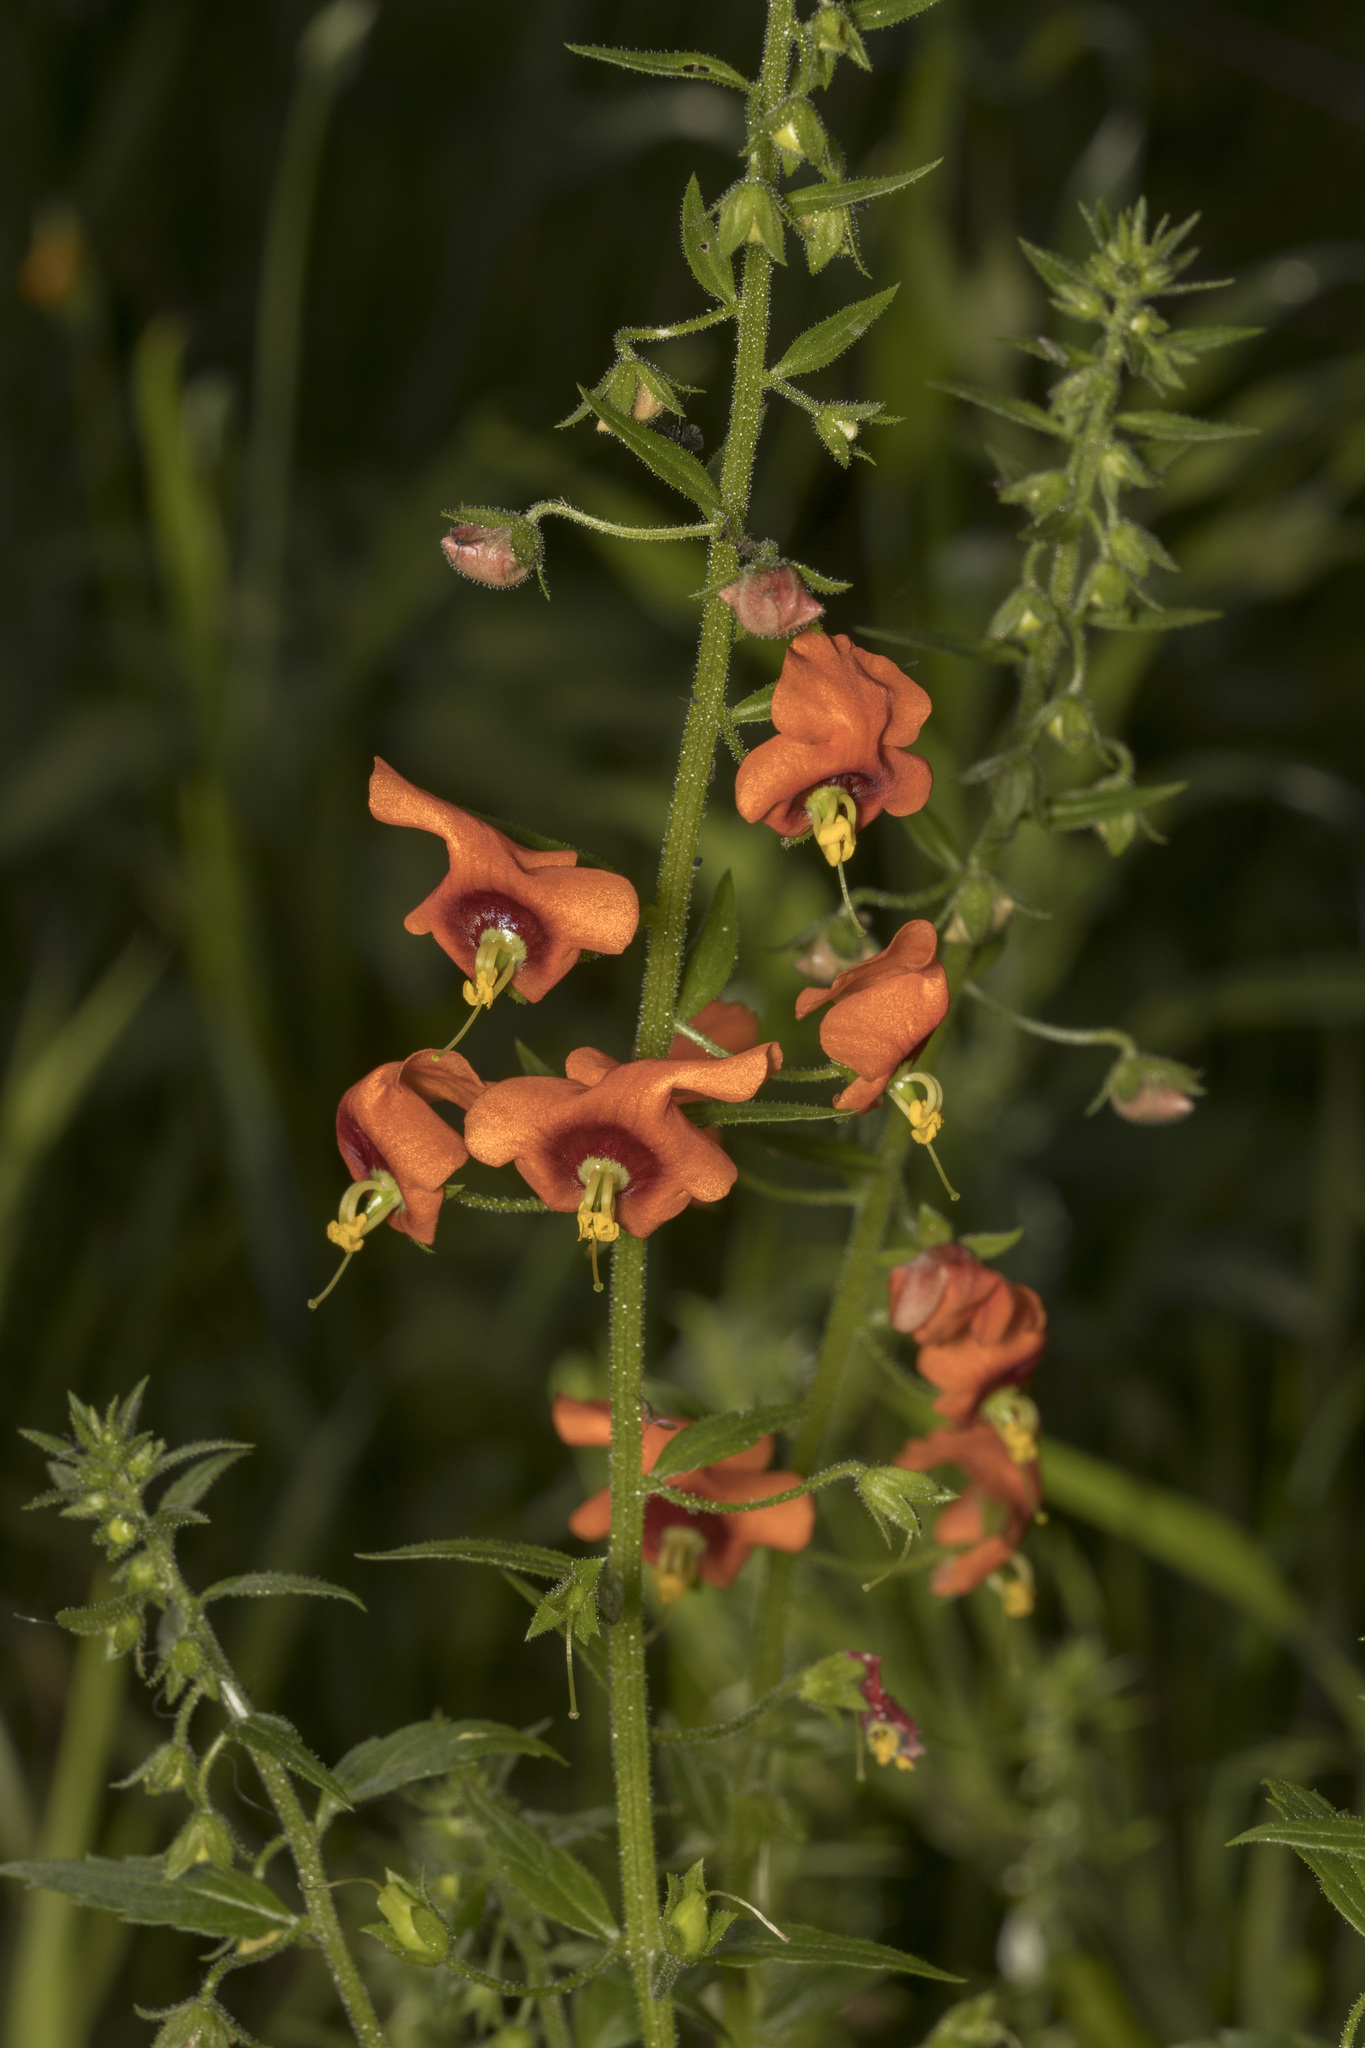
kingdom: Plantae
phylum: Tracheophyta
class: Magnoliopsida
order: Lamiales
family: Scrophulariaceae
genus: Alonsoa
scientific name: Alonsoa meridionalis
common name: Maskflower
